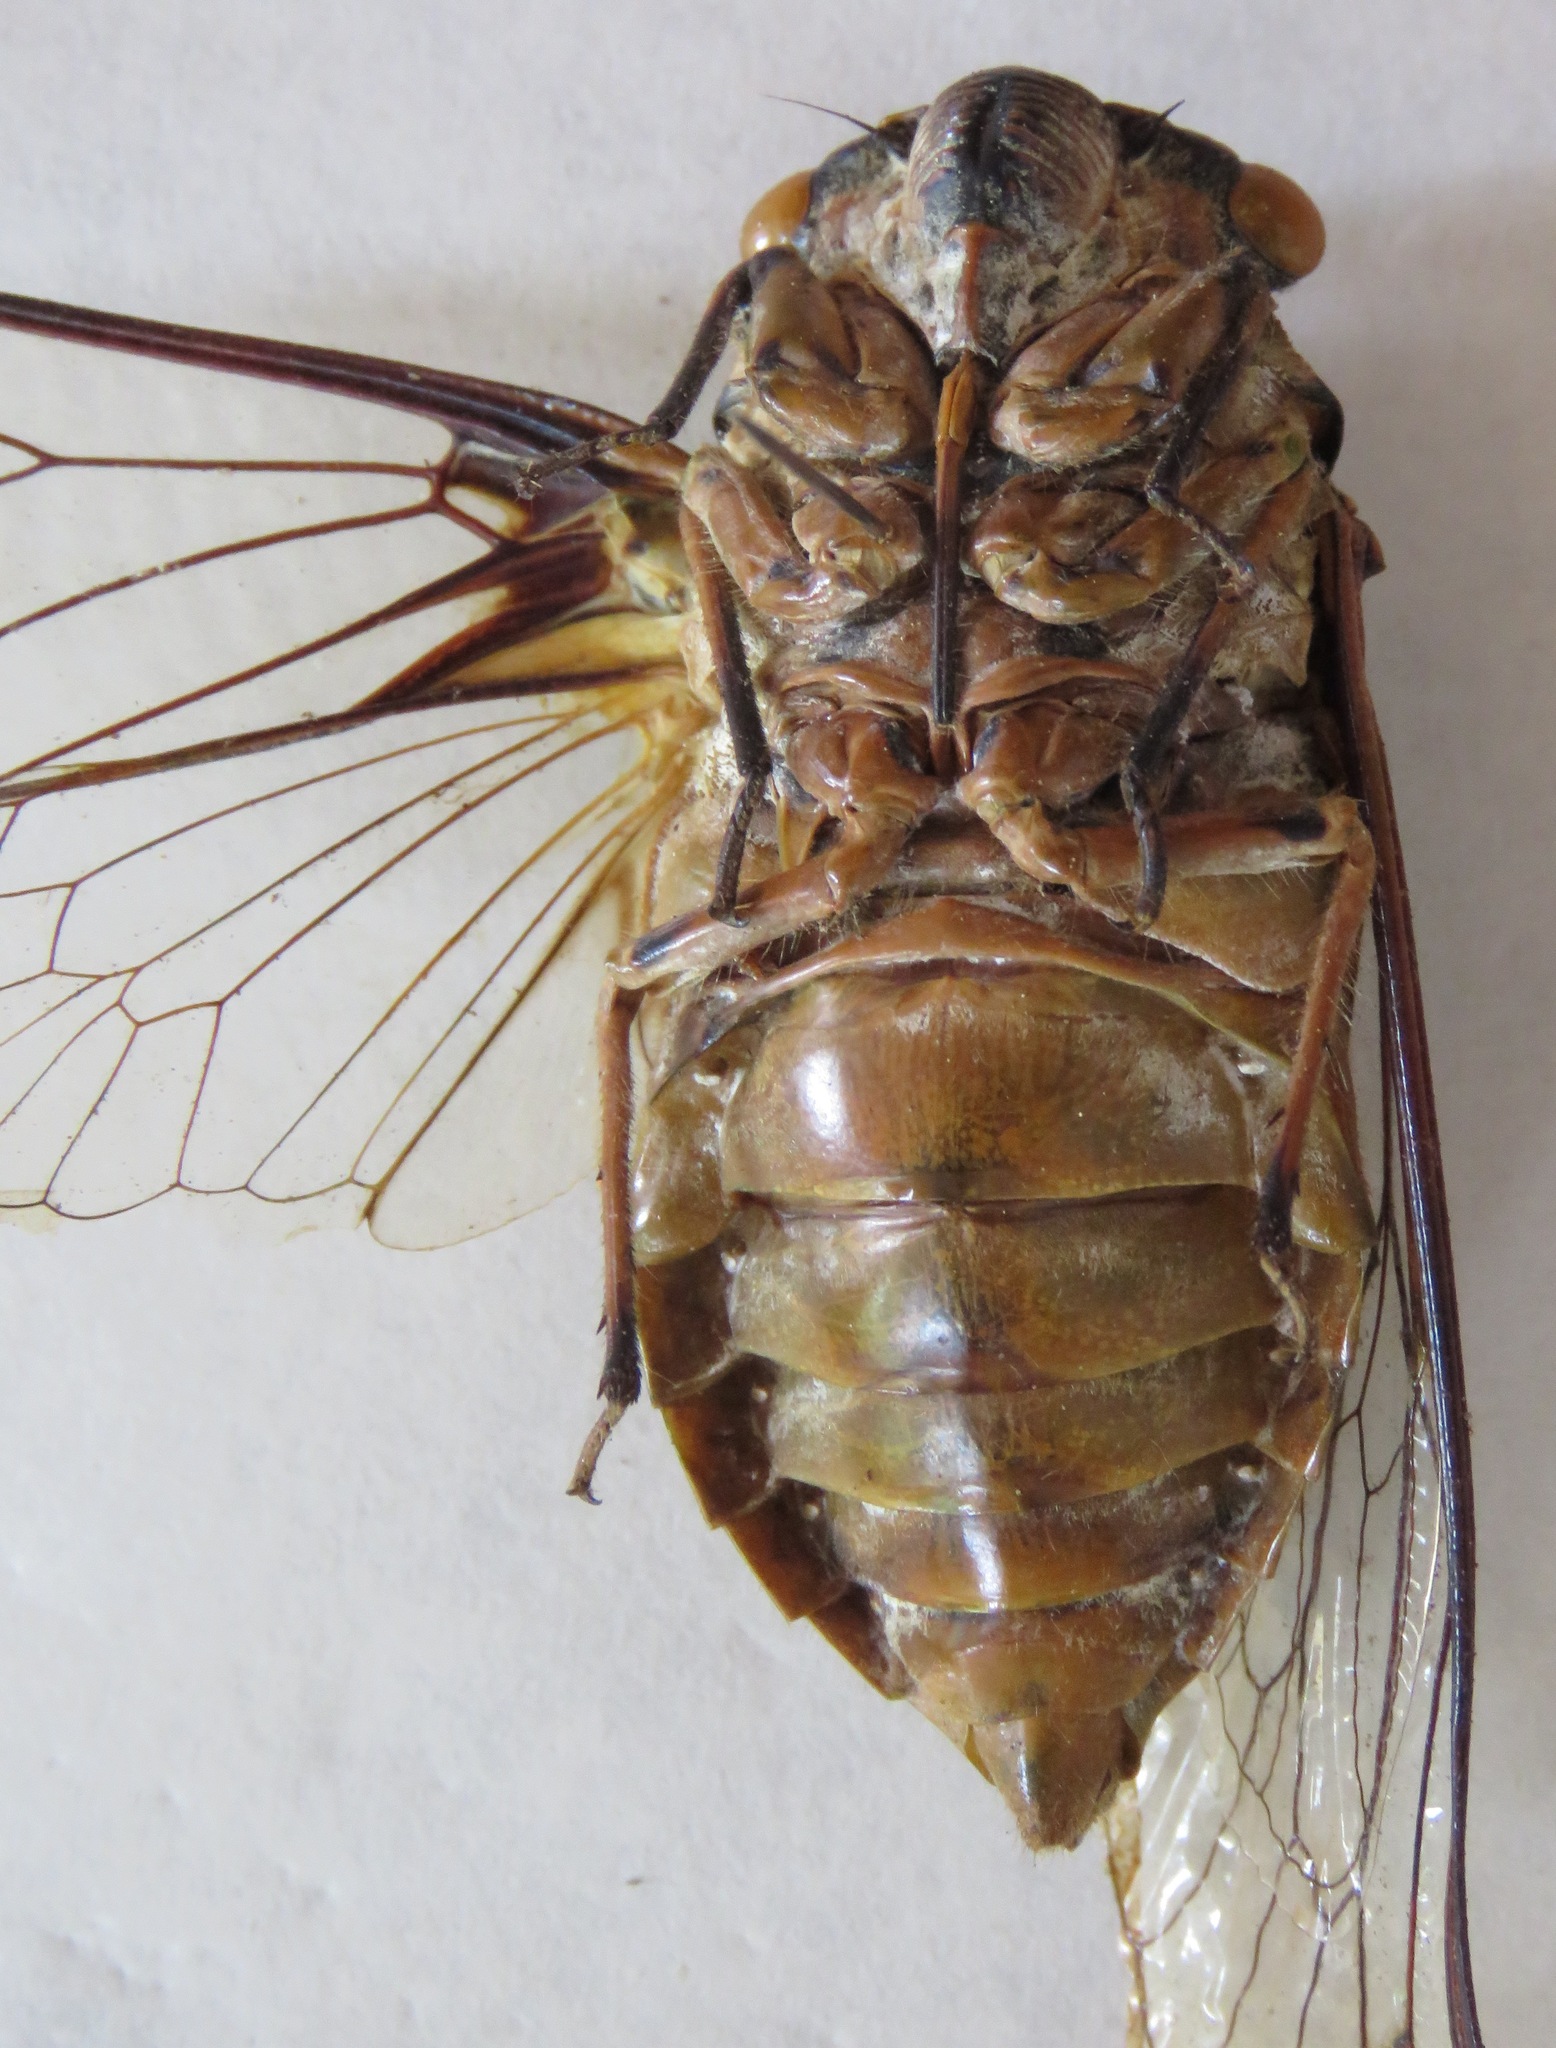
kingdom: Animalia
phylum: Arthropoda
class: Insecta
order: Hemiptera
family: Cicadidae
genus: Quesada
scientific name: Quesada gigas
